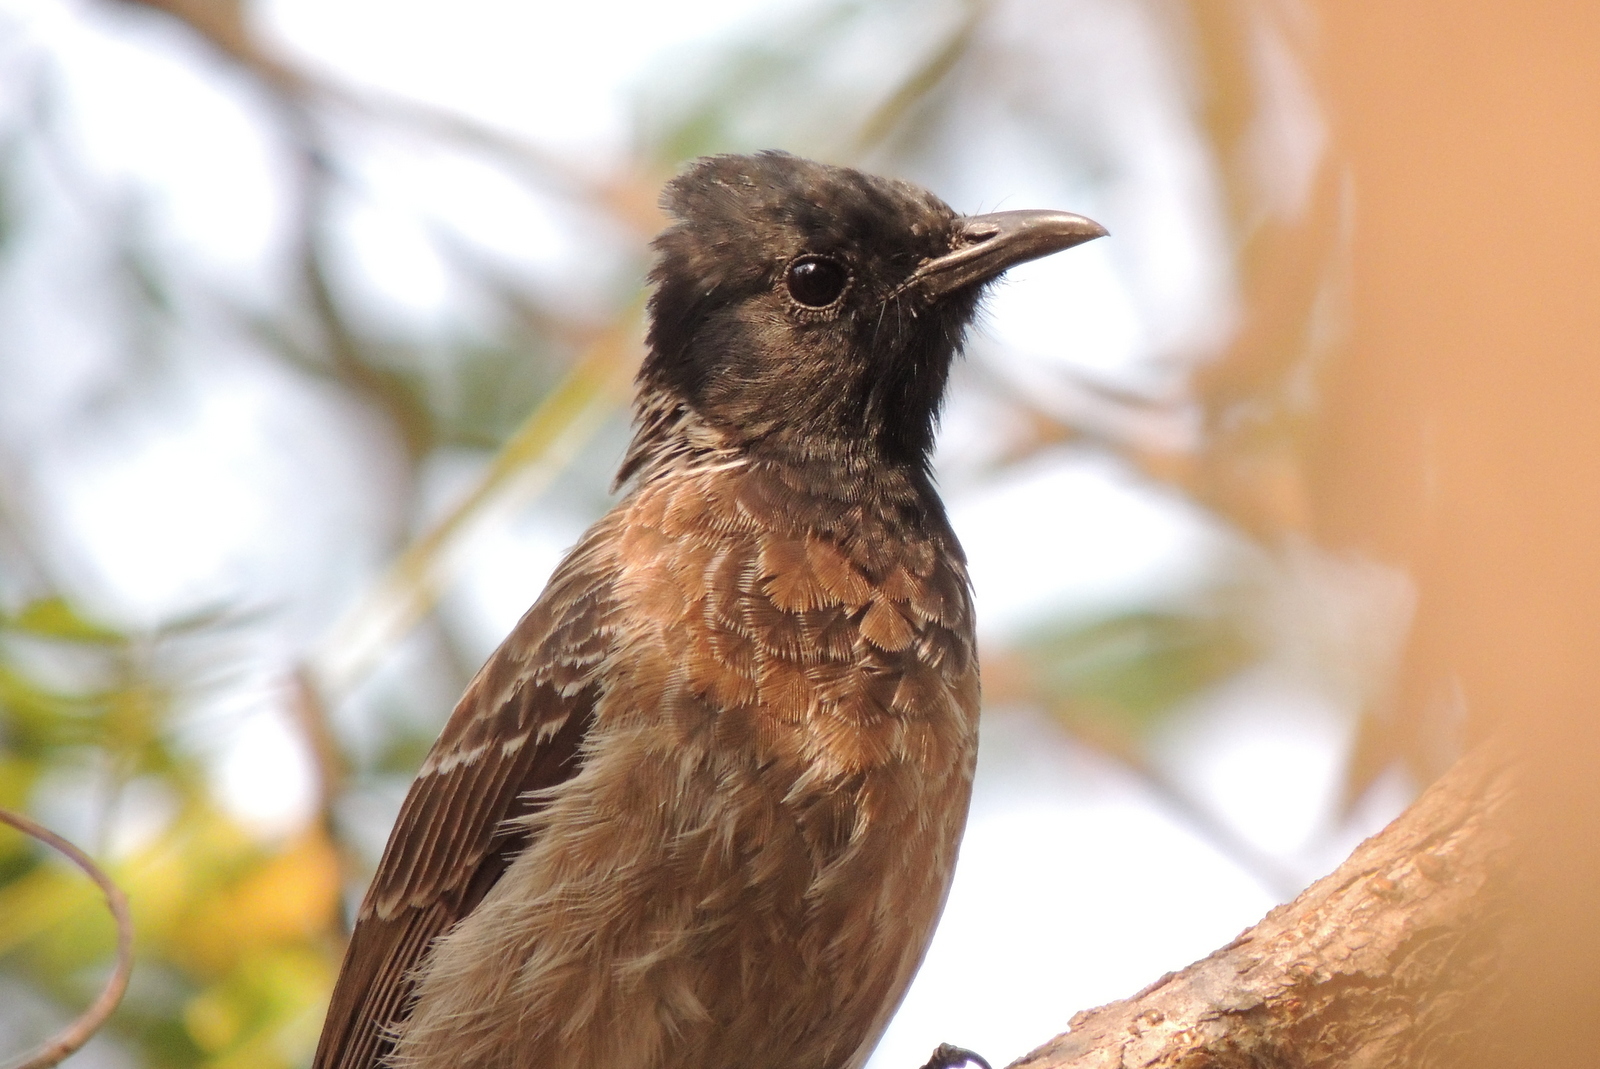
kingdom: Animalia
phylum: Chordata
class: Aves
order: Passeriformes
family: Pycnonotidae
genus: Pycnonotus
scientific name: Pycnonotus cafer
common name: Red-vented bulbul
